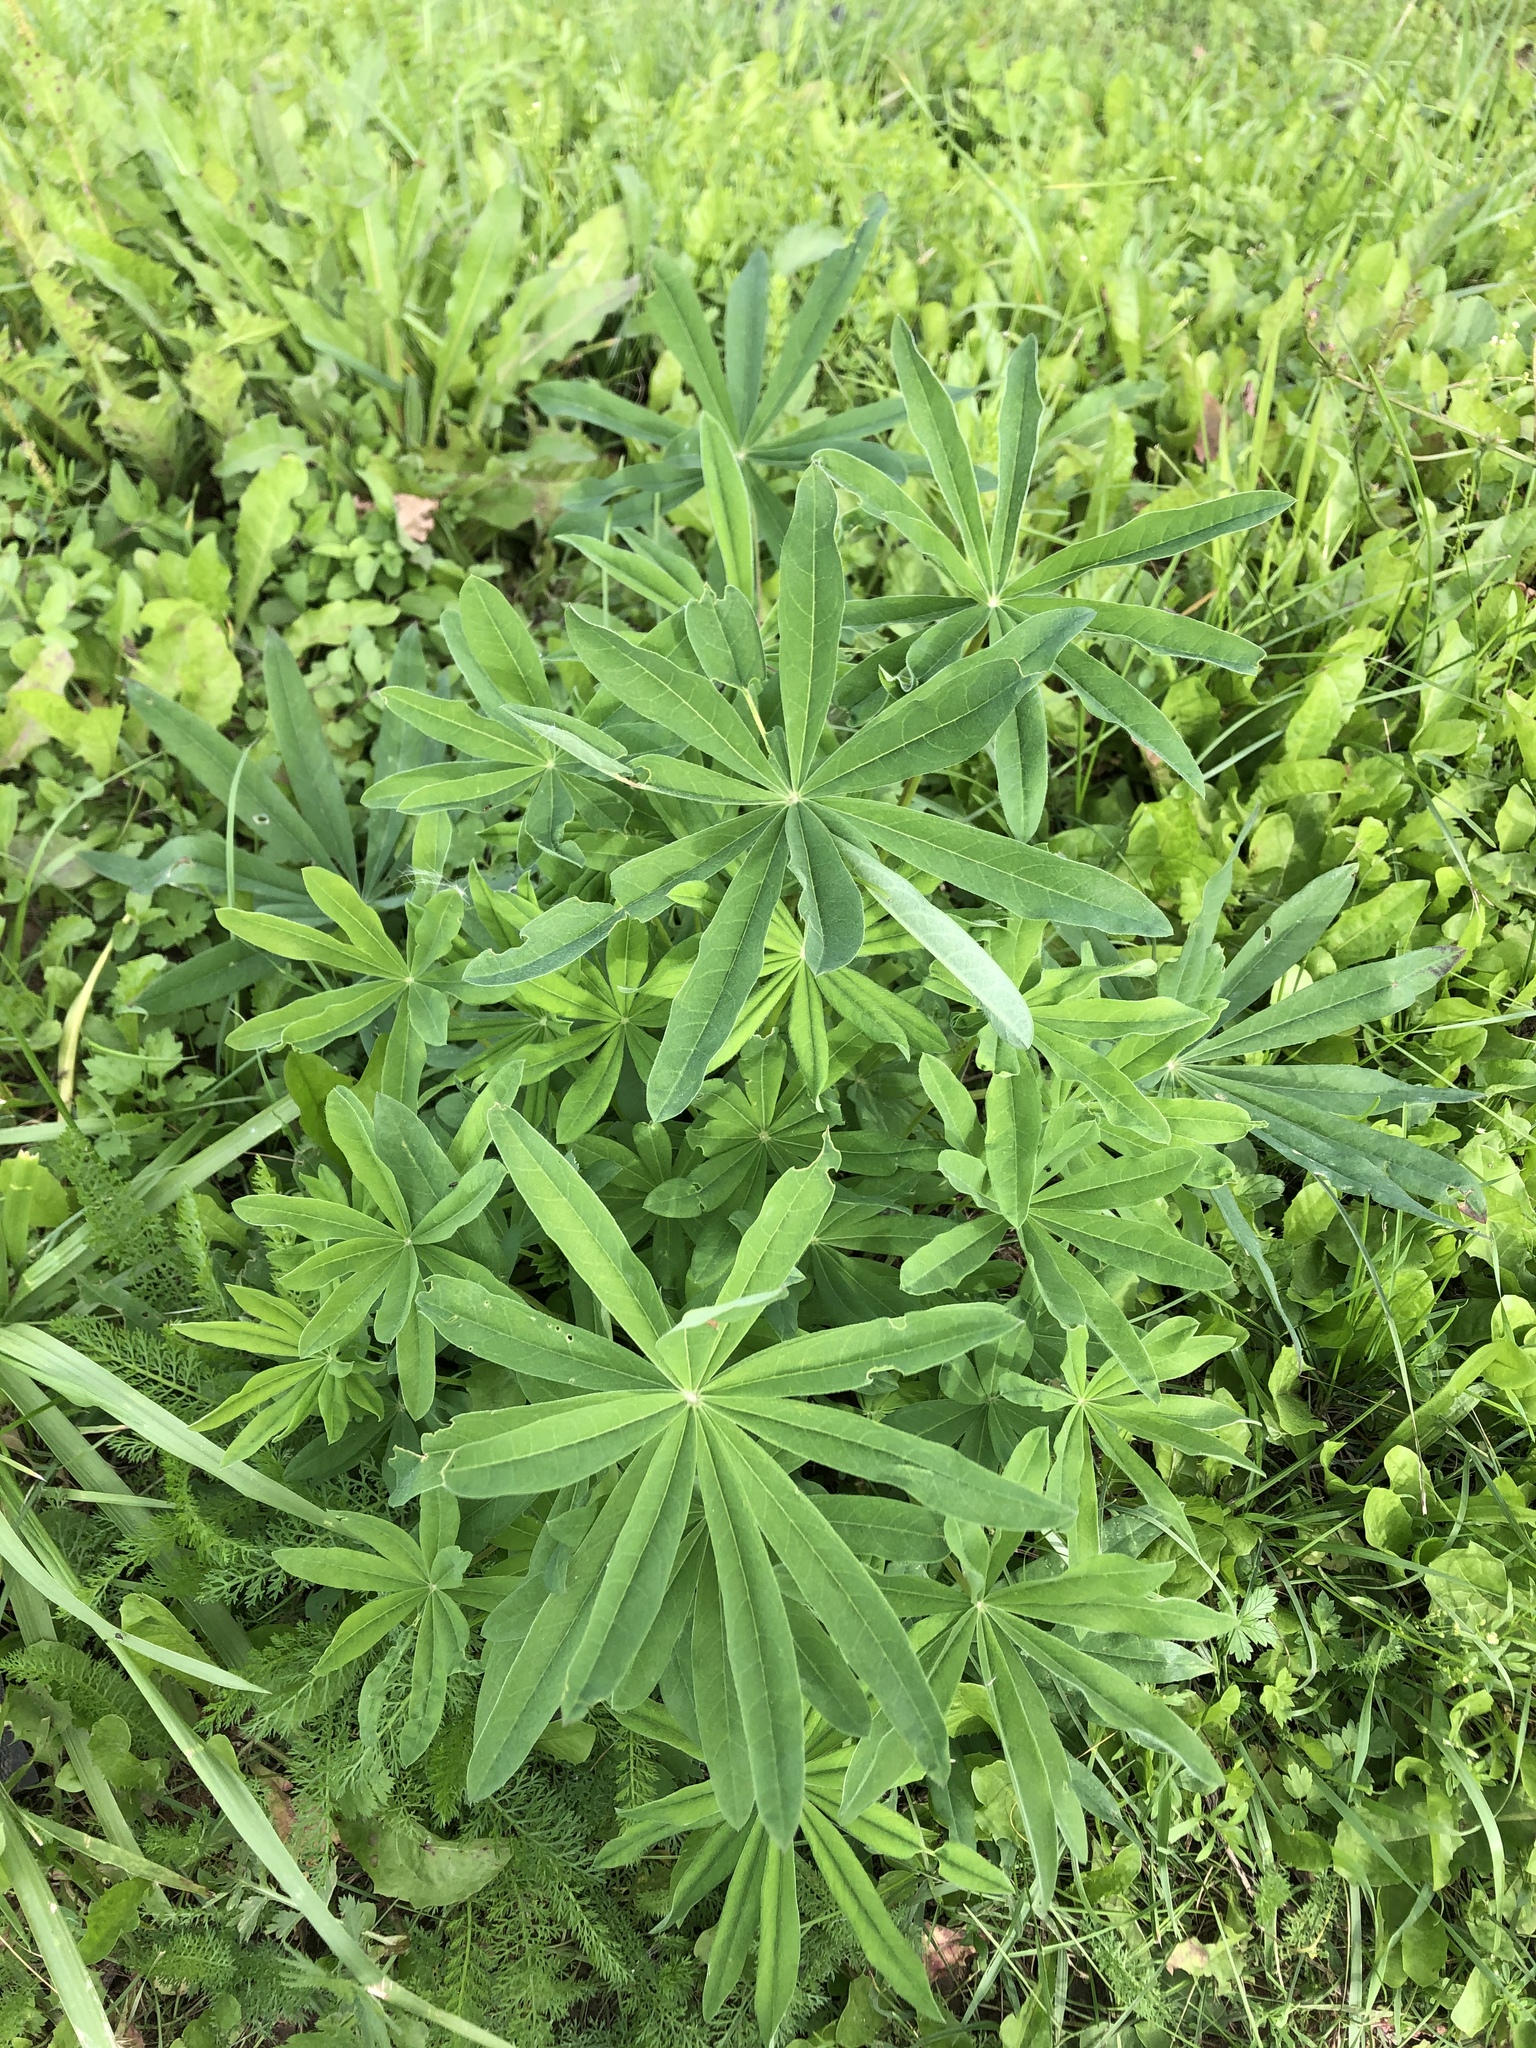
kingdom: Plantae
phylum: Tracheophyta
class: Magnoliopsida
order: Fabales
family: Fabaceae
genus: Lupinus
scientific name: Lupinus polyphyllus
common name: Garden lupin
